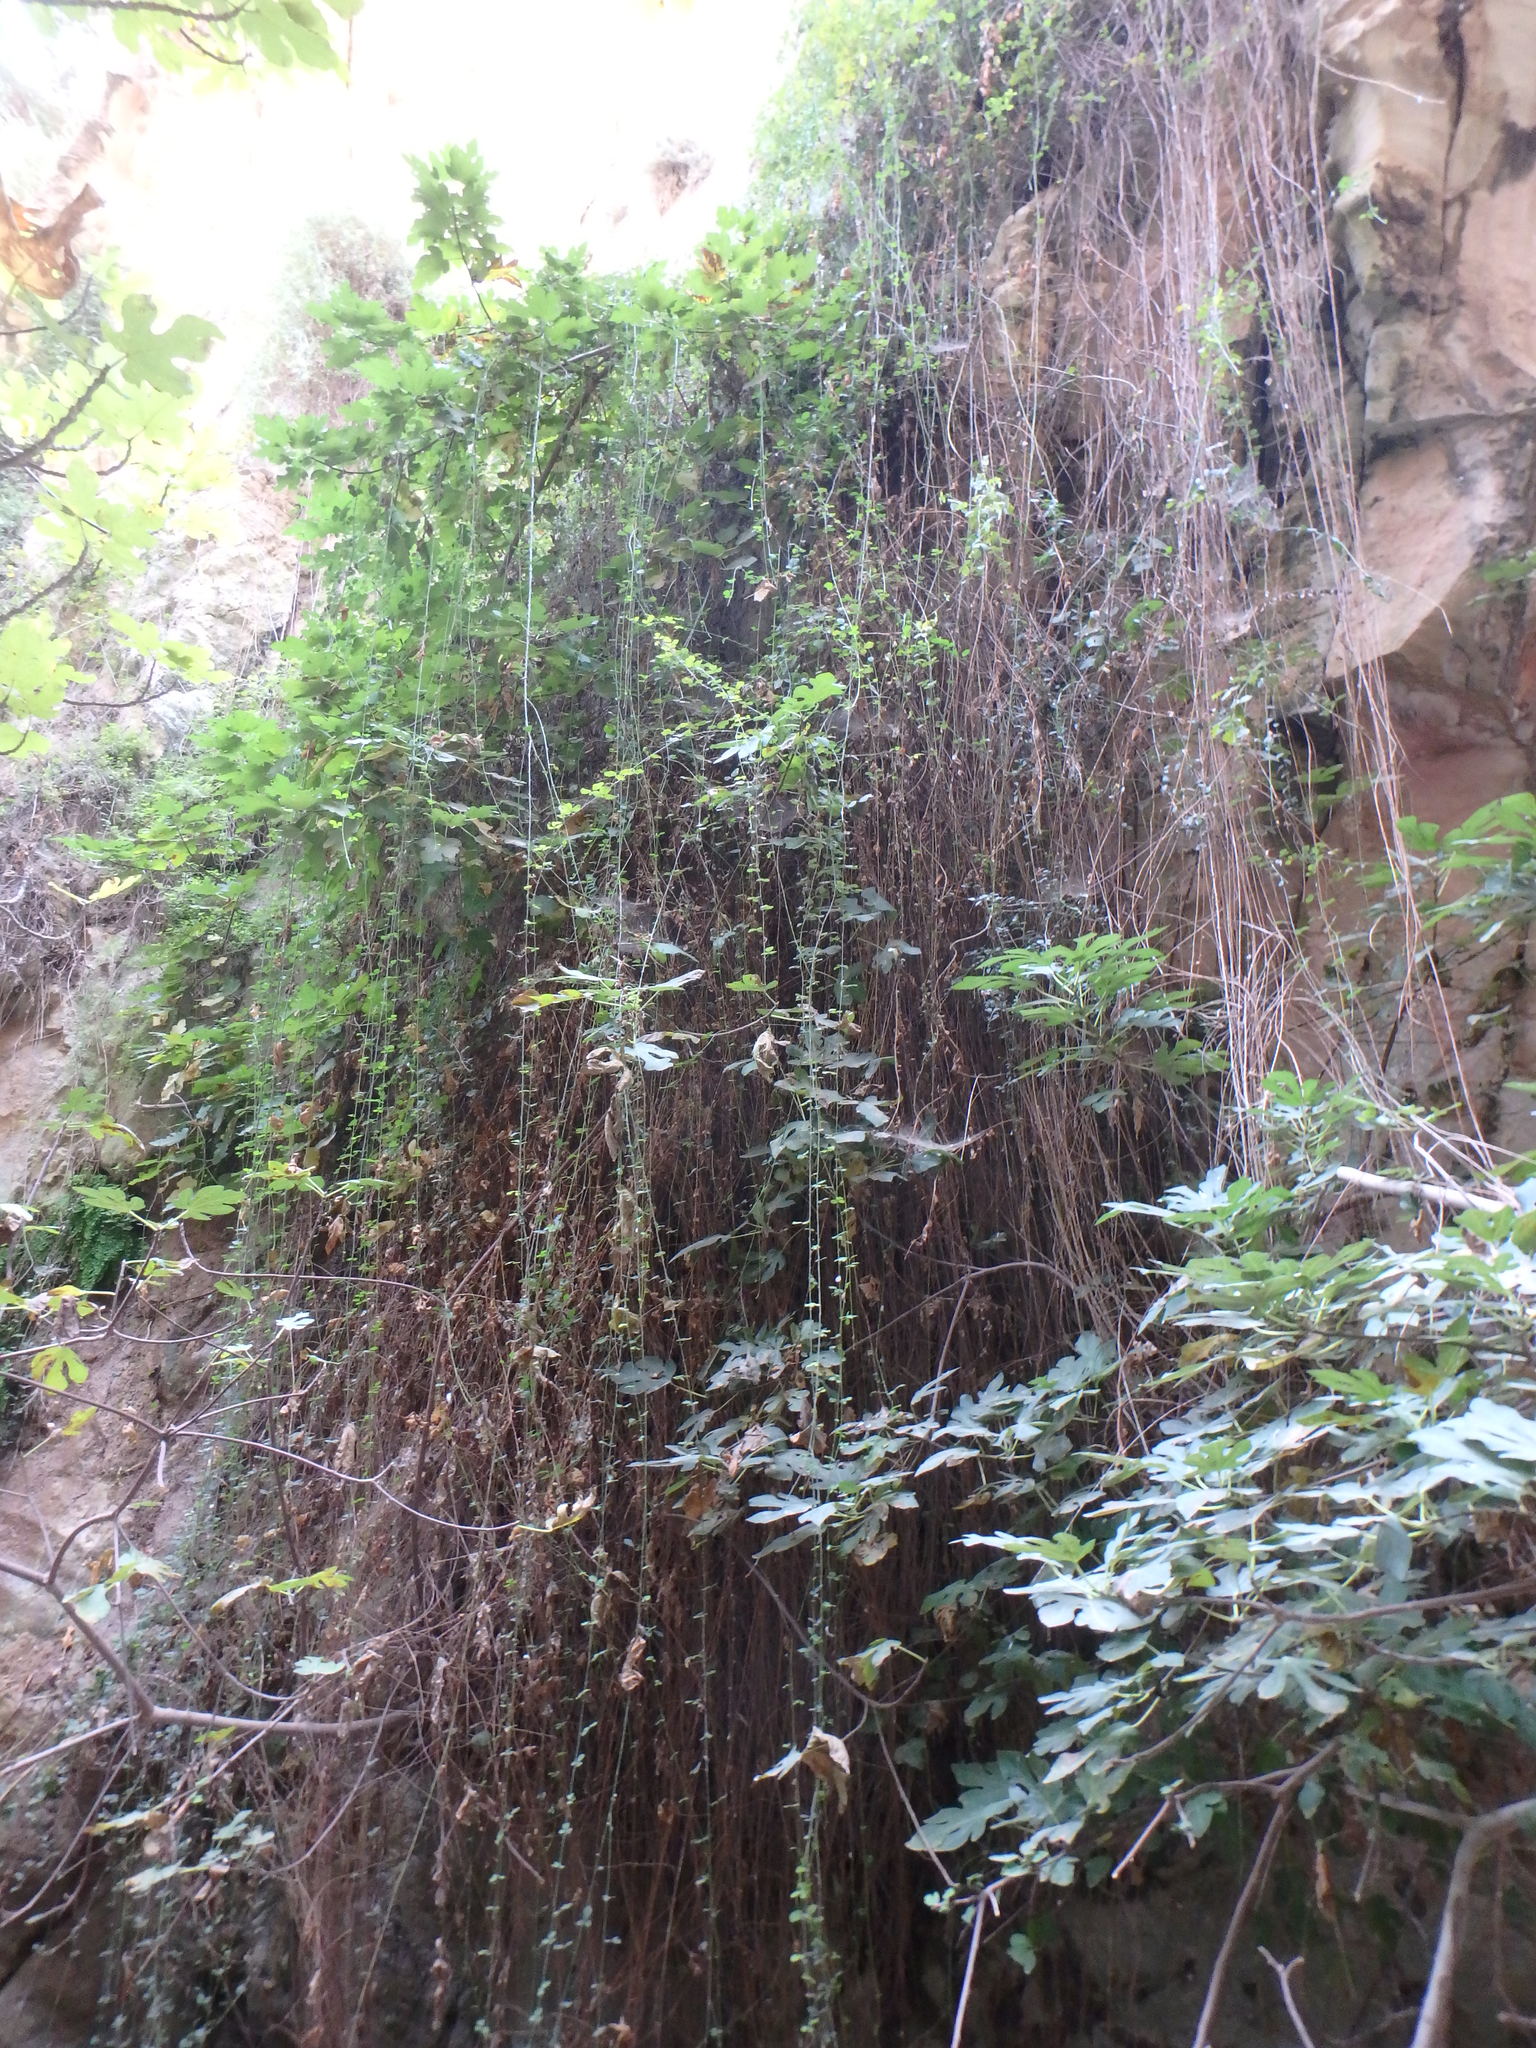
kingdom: Plantae
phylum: Tracheophyta
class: Magnoliopsida
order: Rosales
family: Rosaceae
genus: Rubus
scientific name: Rubus sanctus
